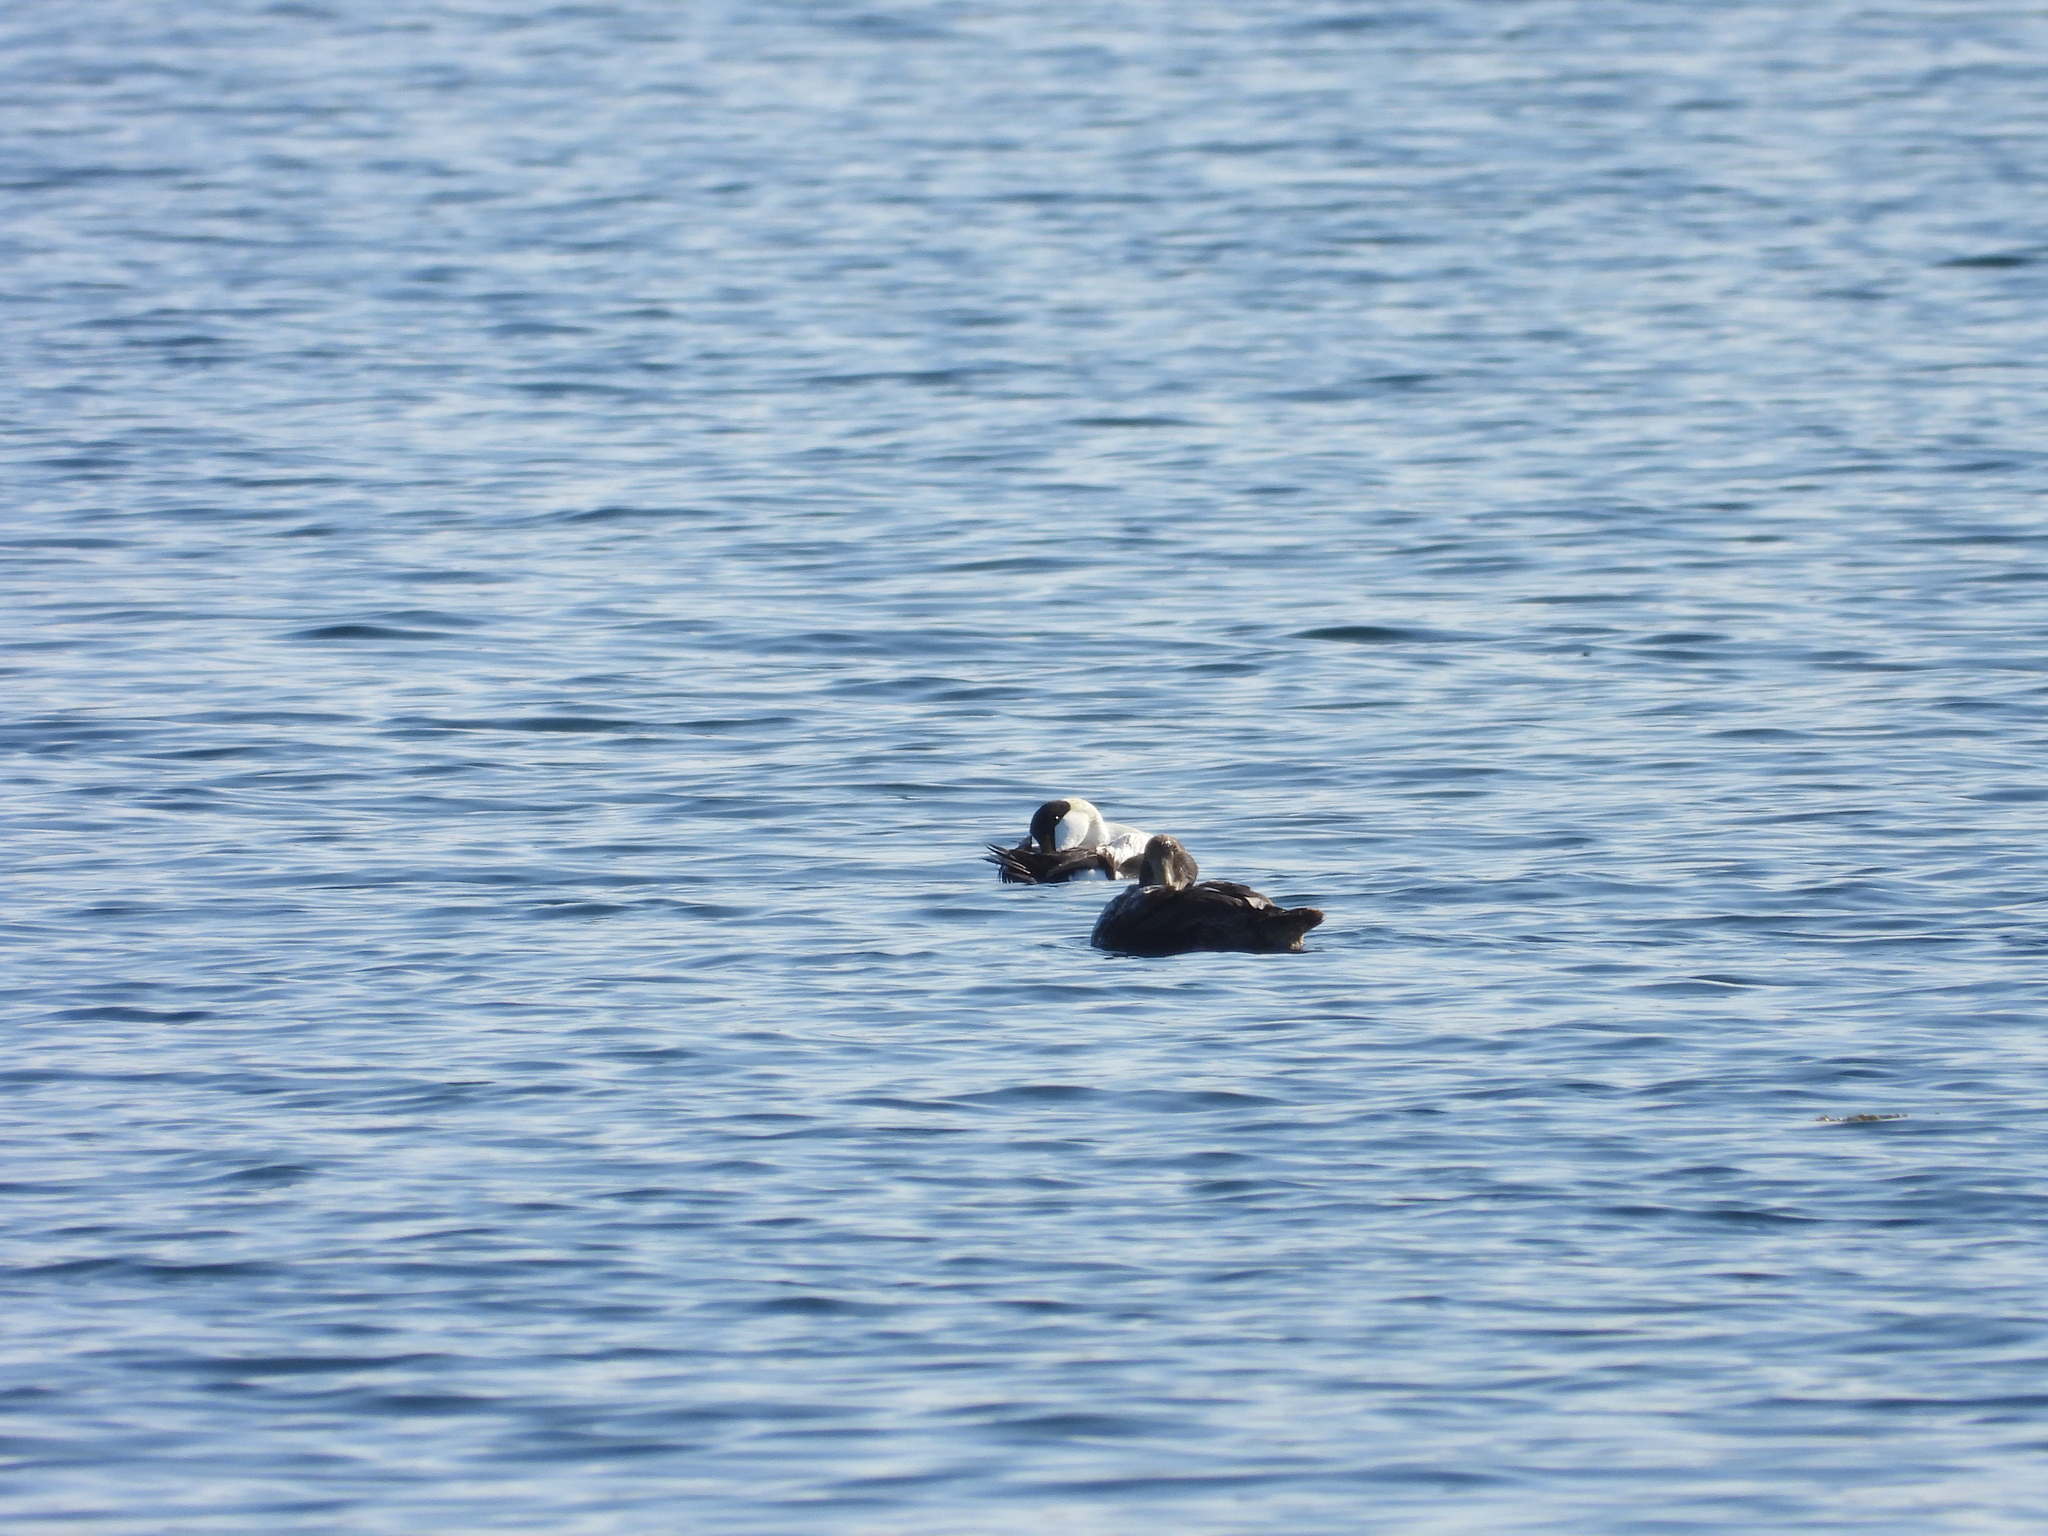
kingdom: Animalia
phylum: Chordata
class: Aves
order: Anseriformes
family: Anatidae
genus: Somateria
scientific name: Somateria mollissima
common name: Common eider
